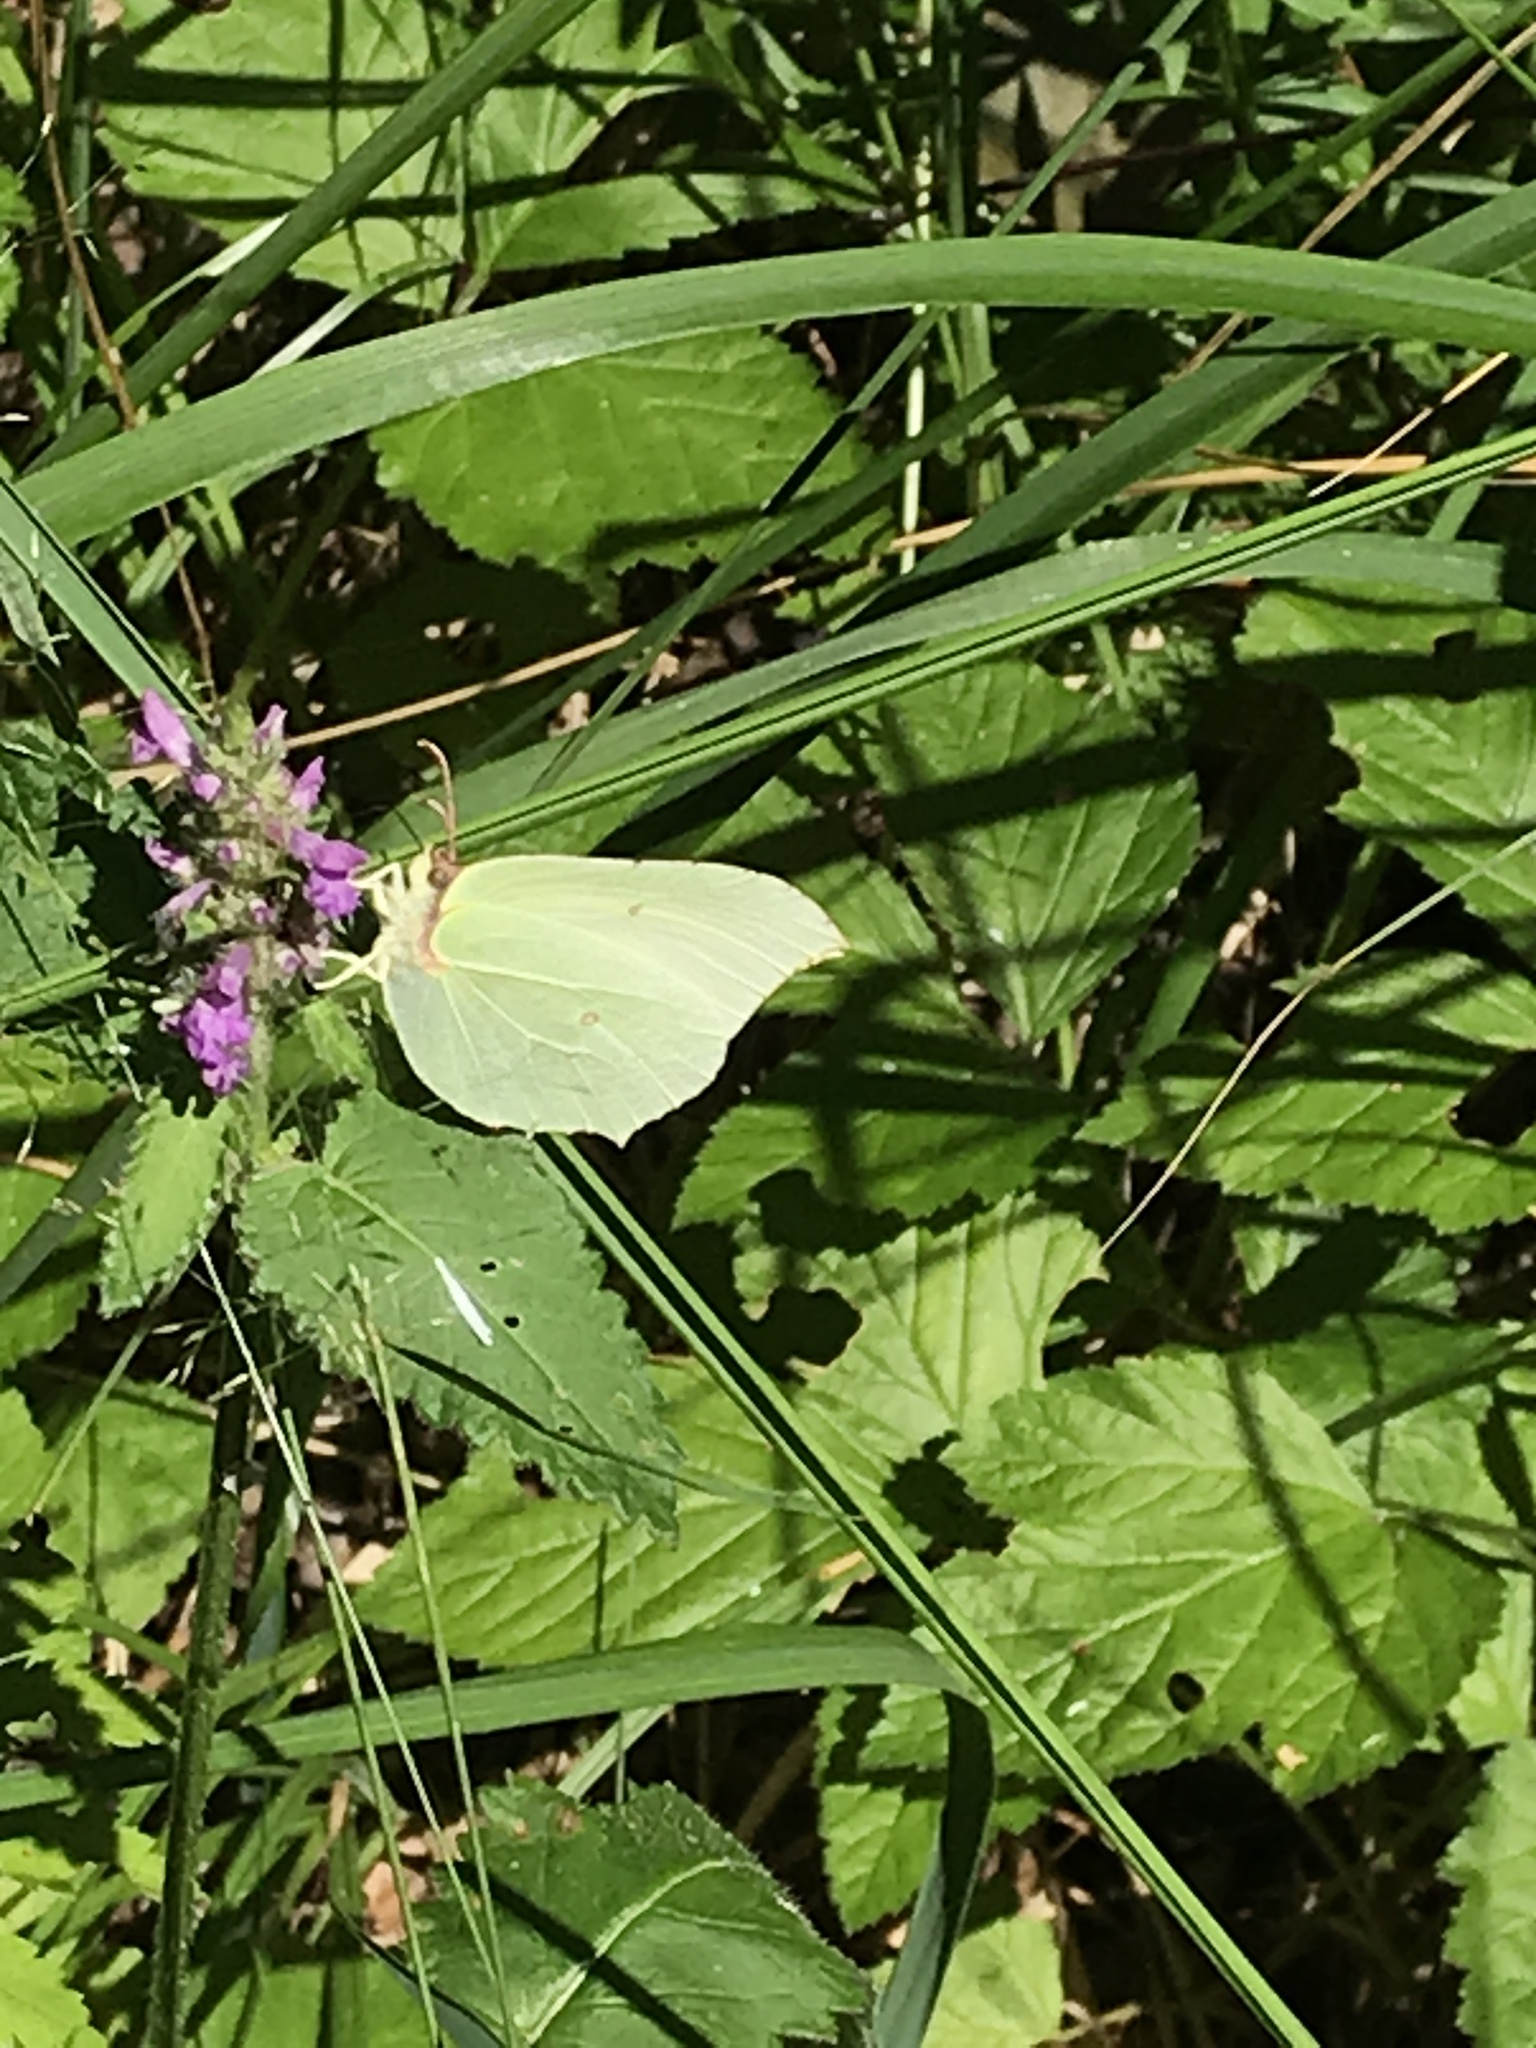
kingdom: Animalia
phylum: Arthropoda
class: Insecta
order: Lepidoptera
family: Pieridae
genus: Gonepteryx
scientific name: Gonepteryx rhamni
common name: Brimstone
